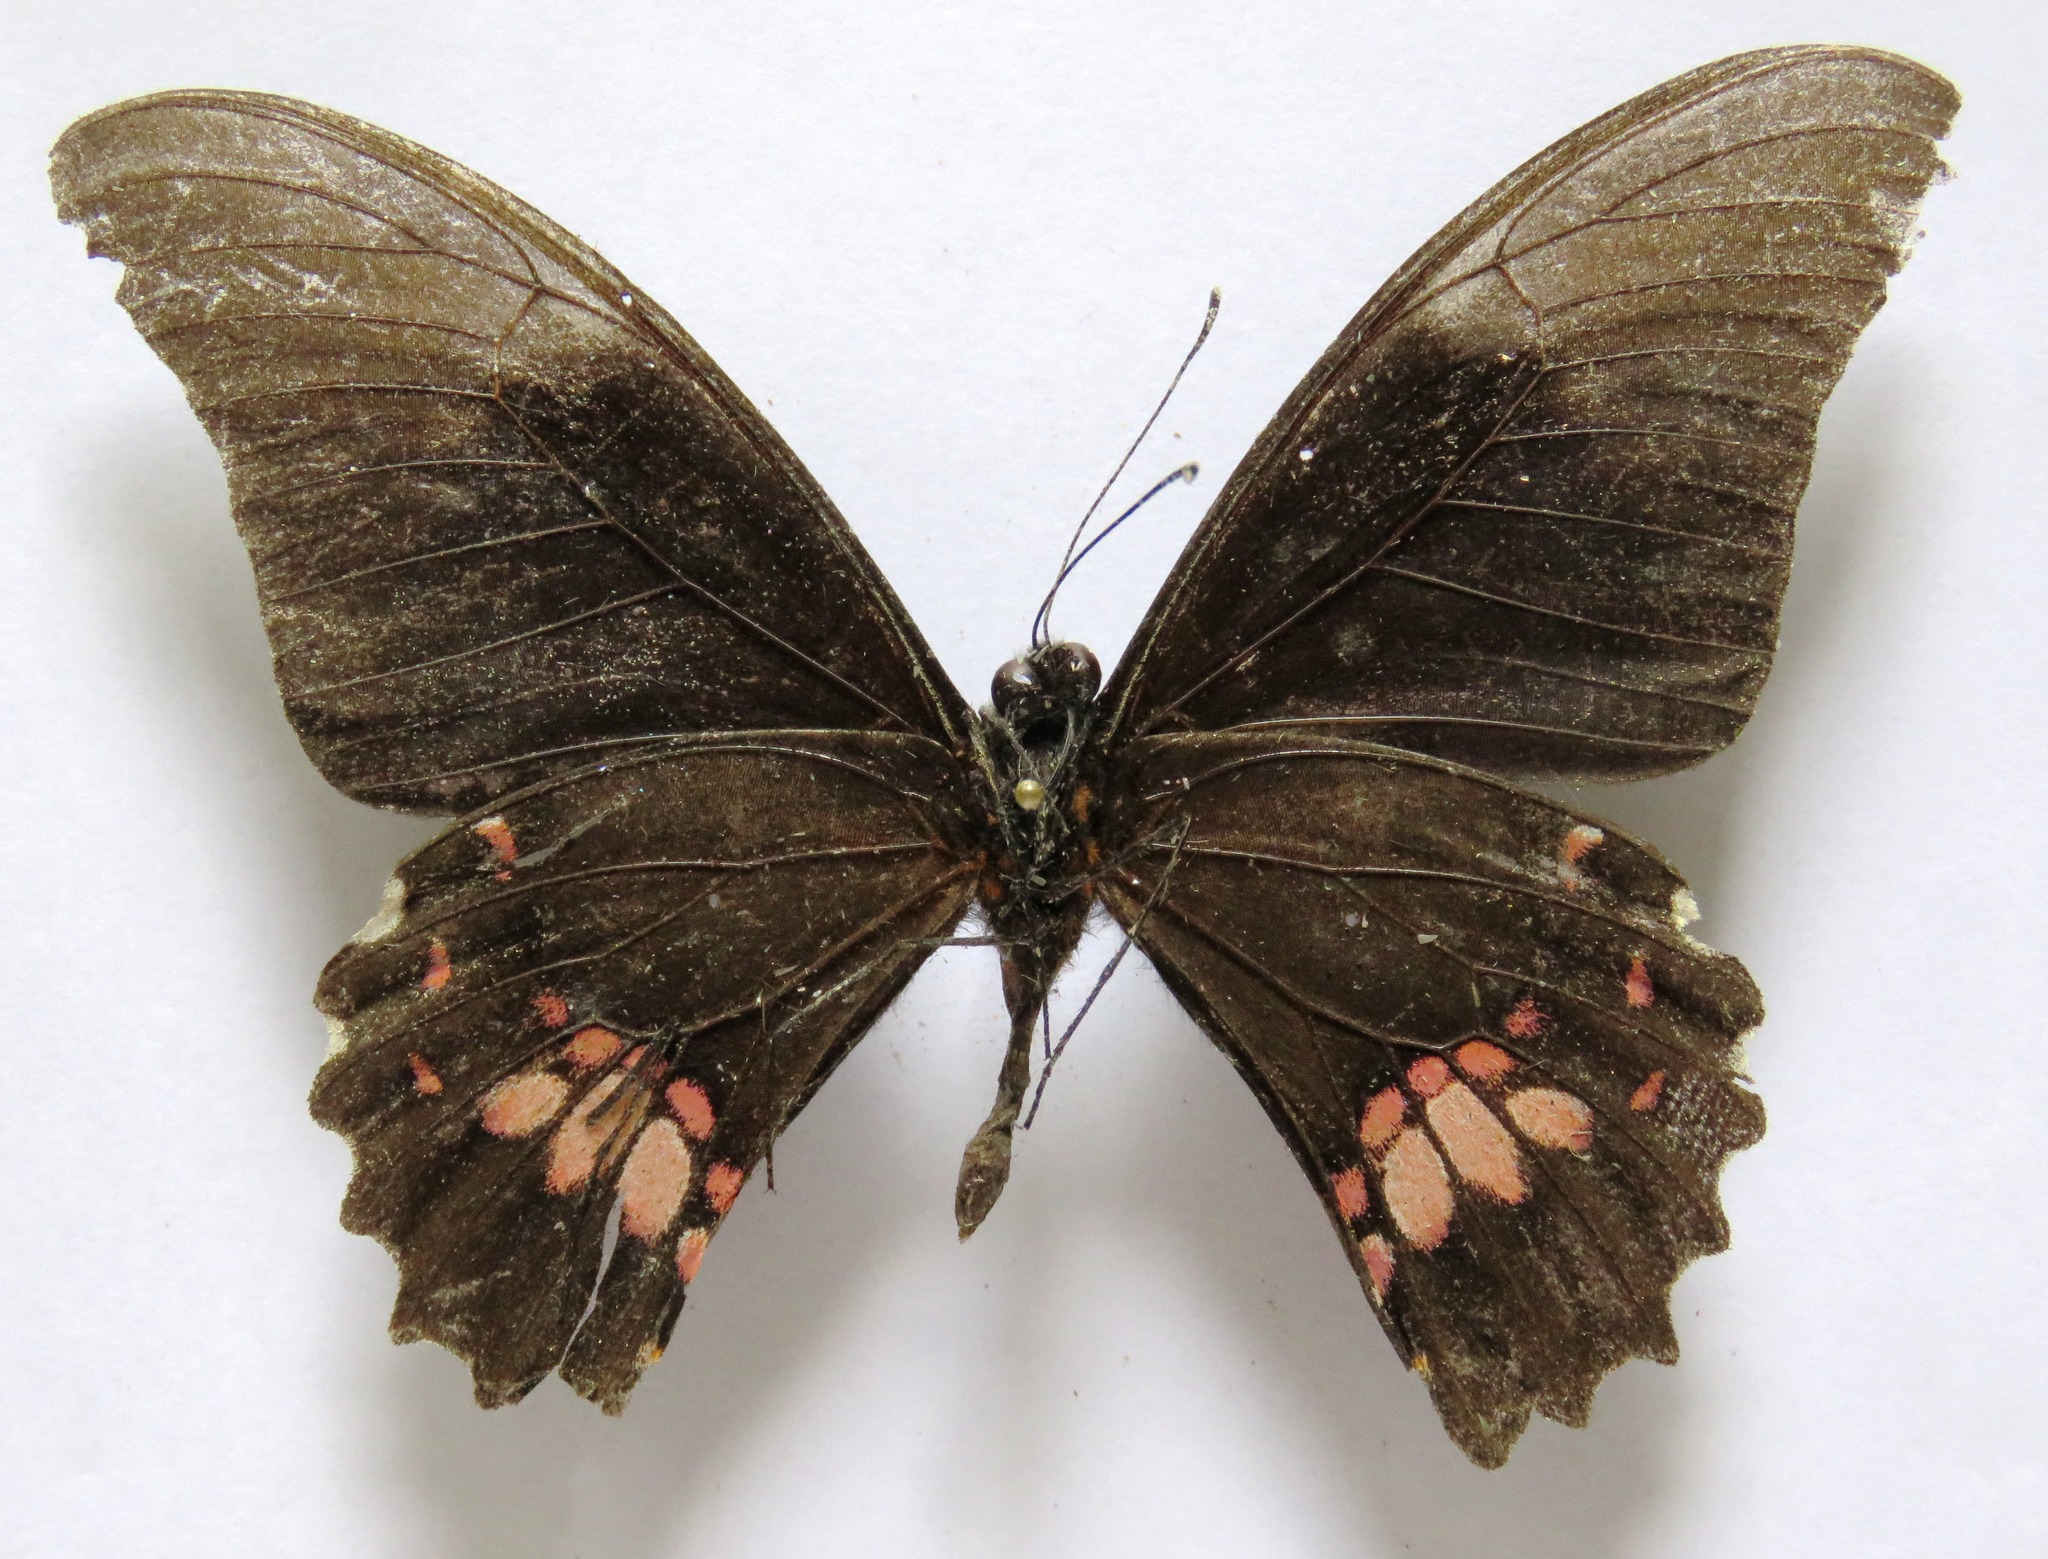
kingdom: Animalia
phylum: Arthropoda
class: Insecta
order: Lepidoptera
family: Papilionidae
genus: Papilio
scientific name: Papilio anchisiades
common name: Idaes swallowtail
